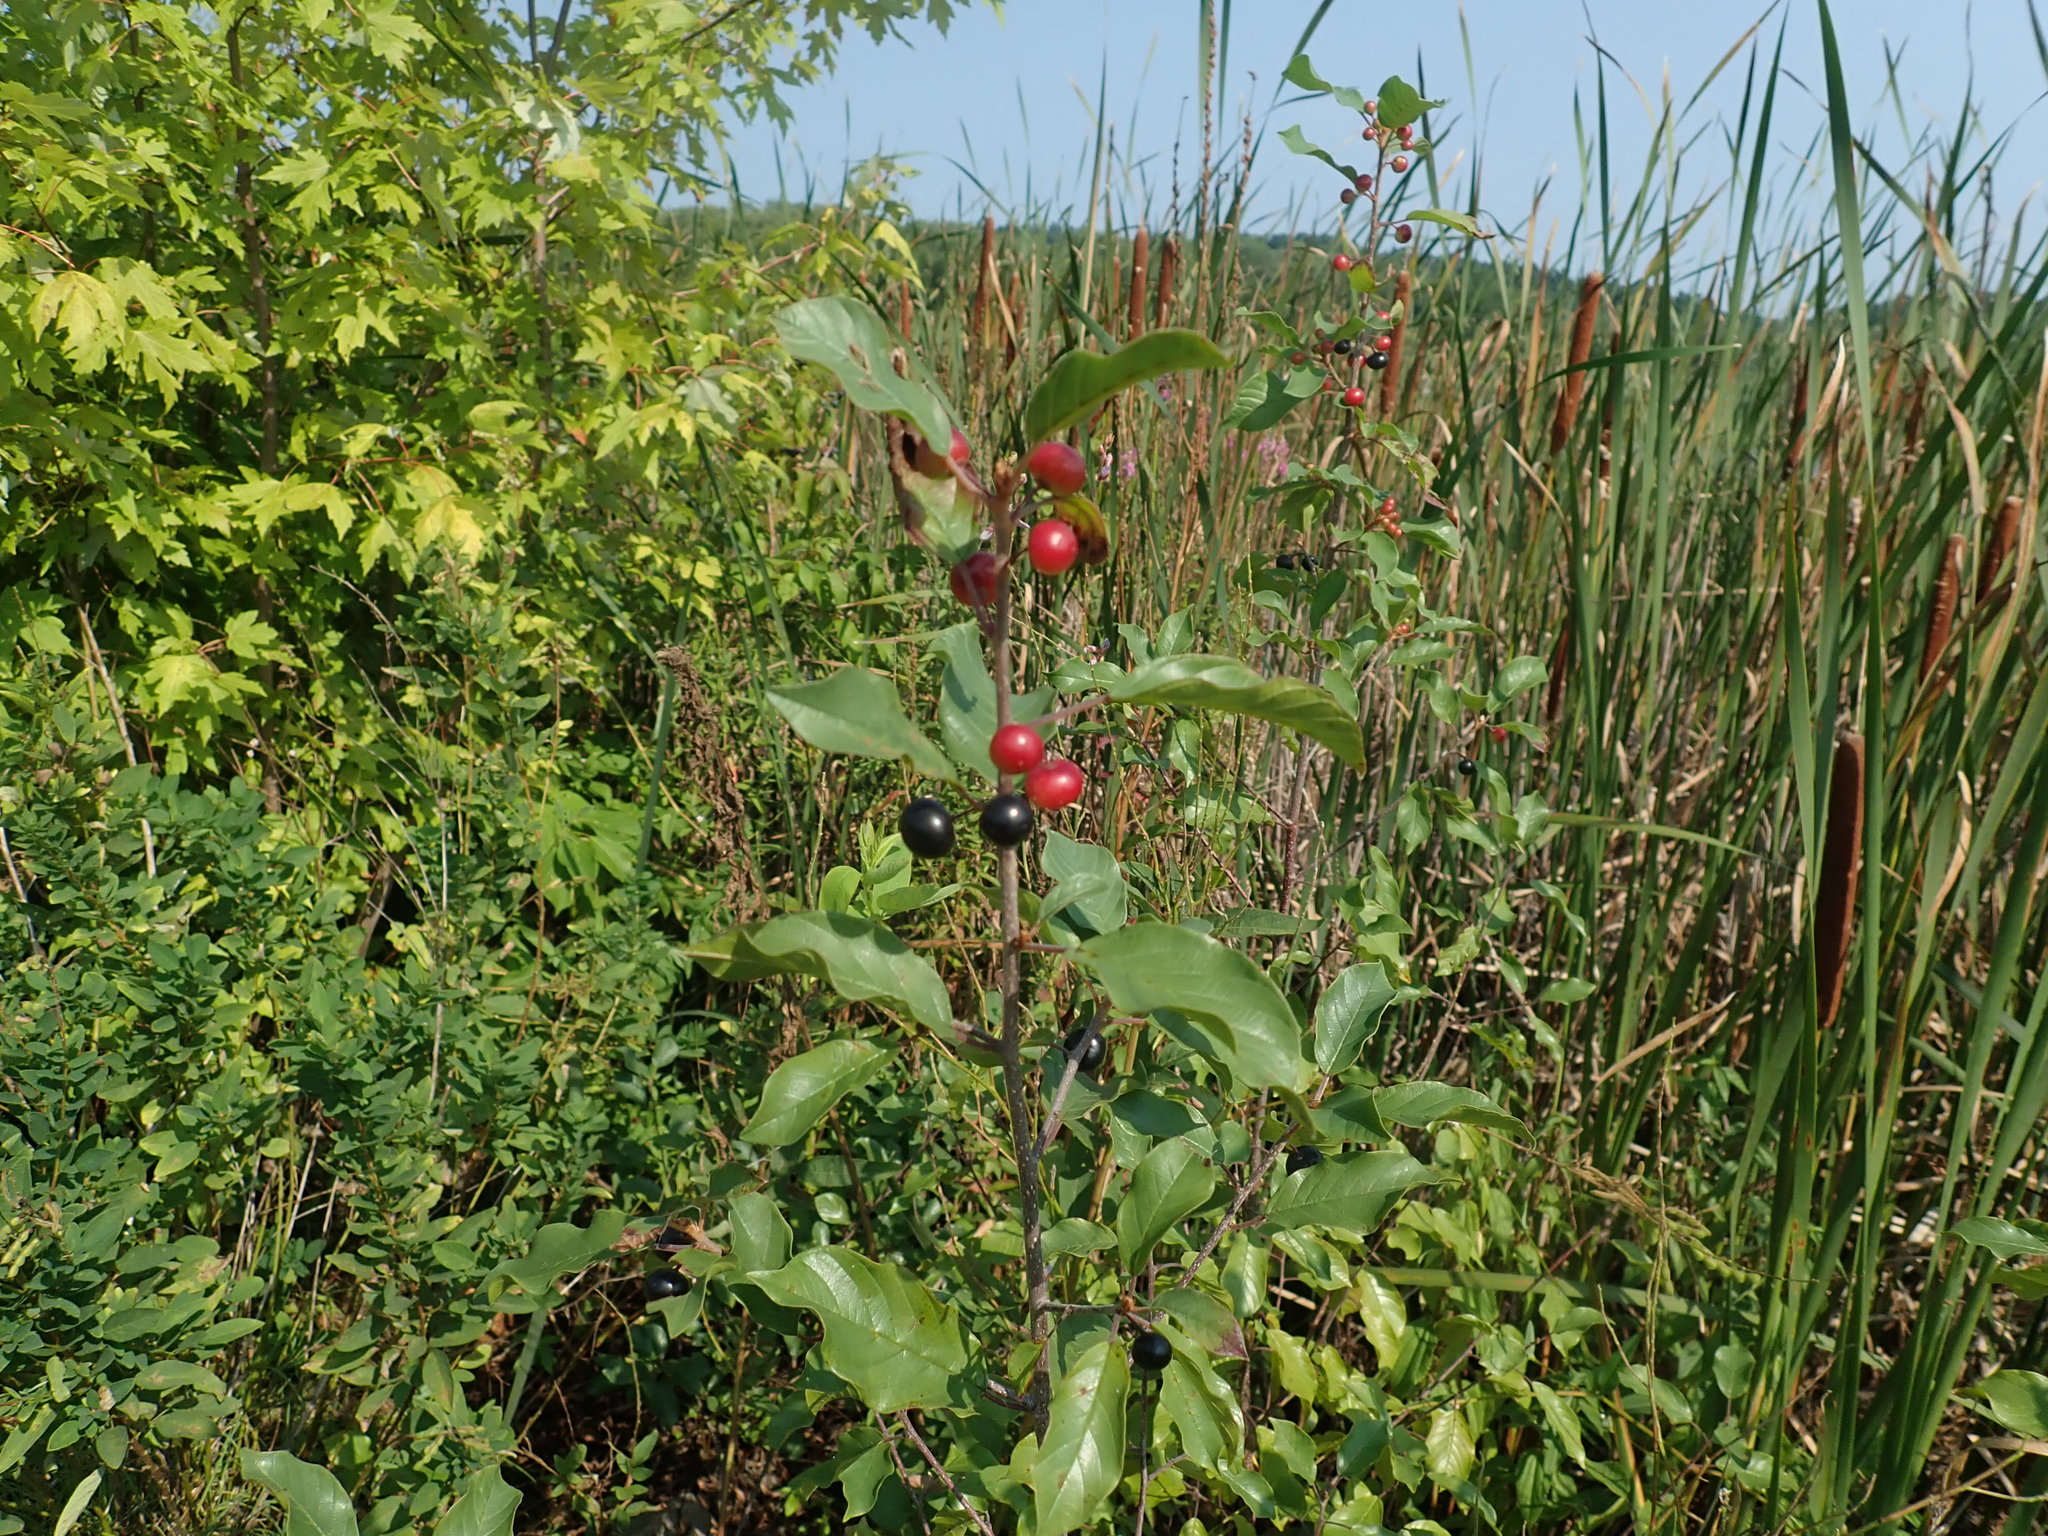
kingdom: Plantae
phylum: Tracheophyta
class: Magnoliopsida
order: Rosales
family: Rhamnaceae
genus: Frangula
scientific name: Frangula alnus
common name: Alder buckthorn
